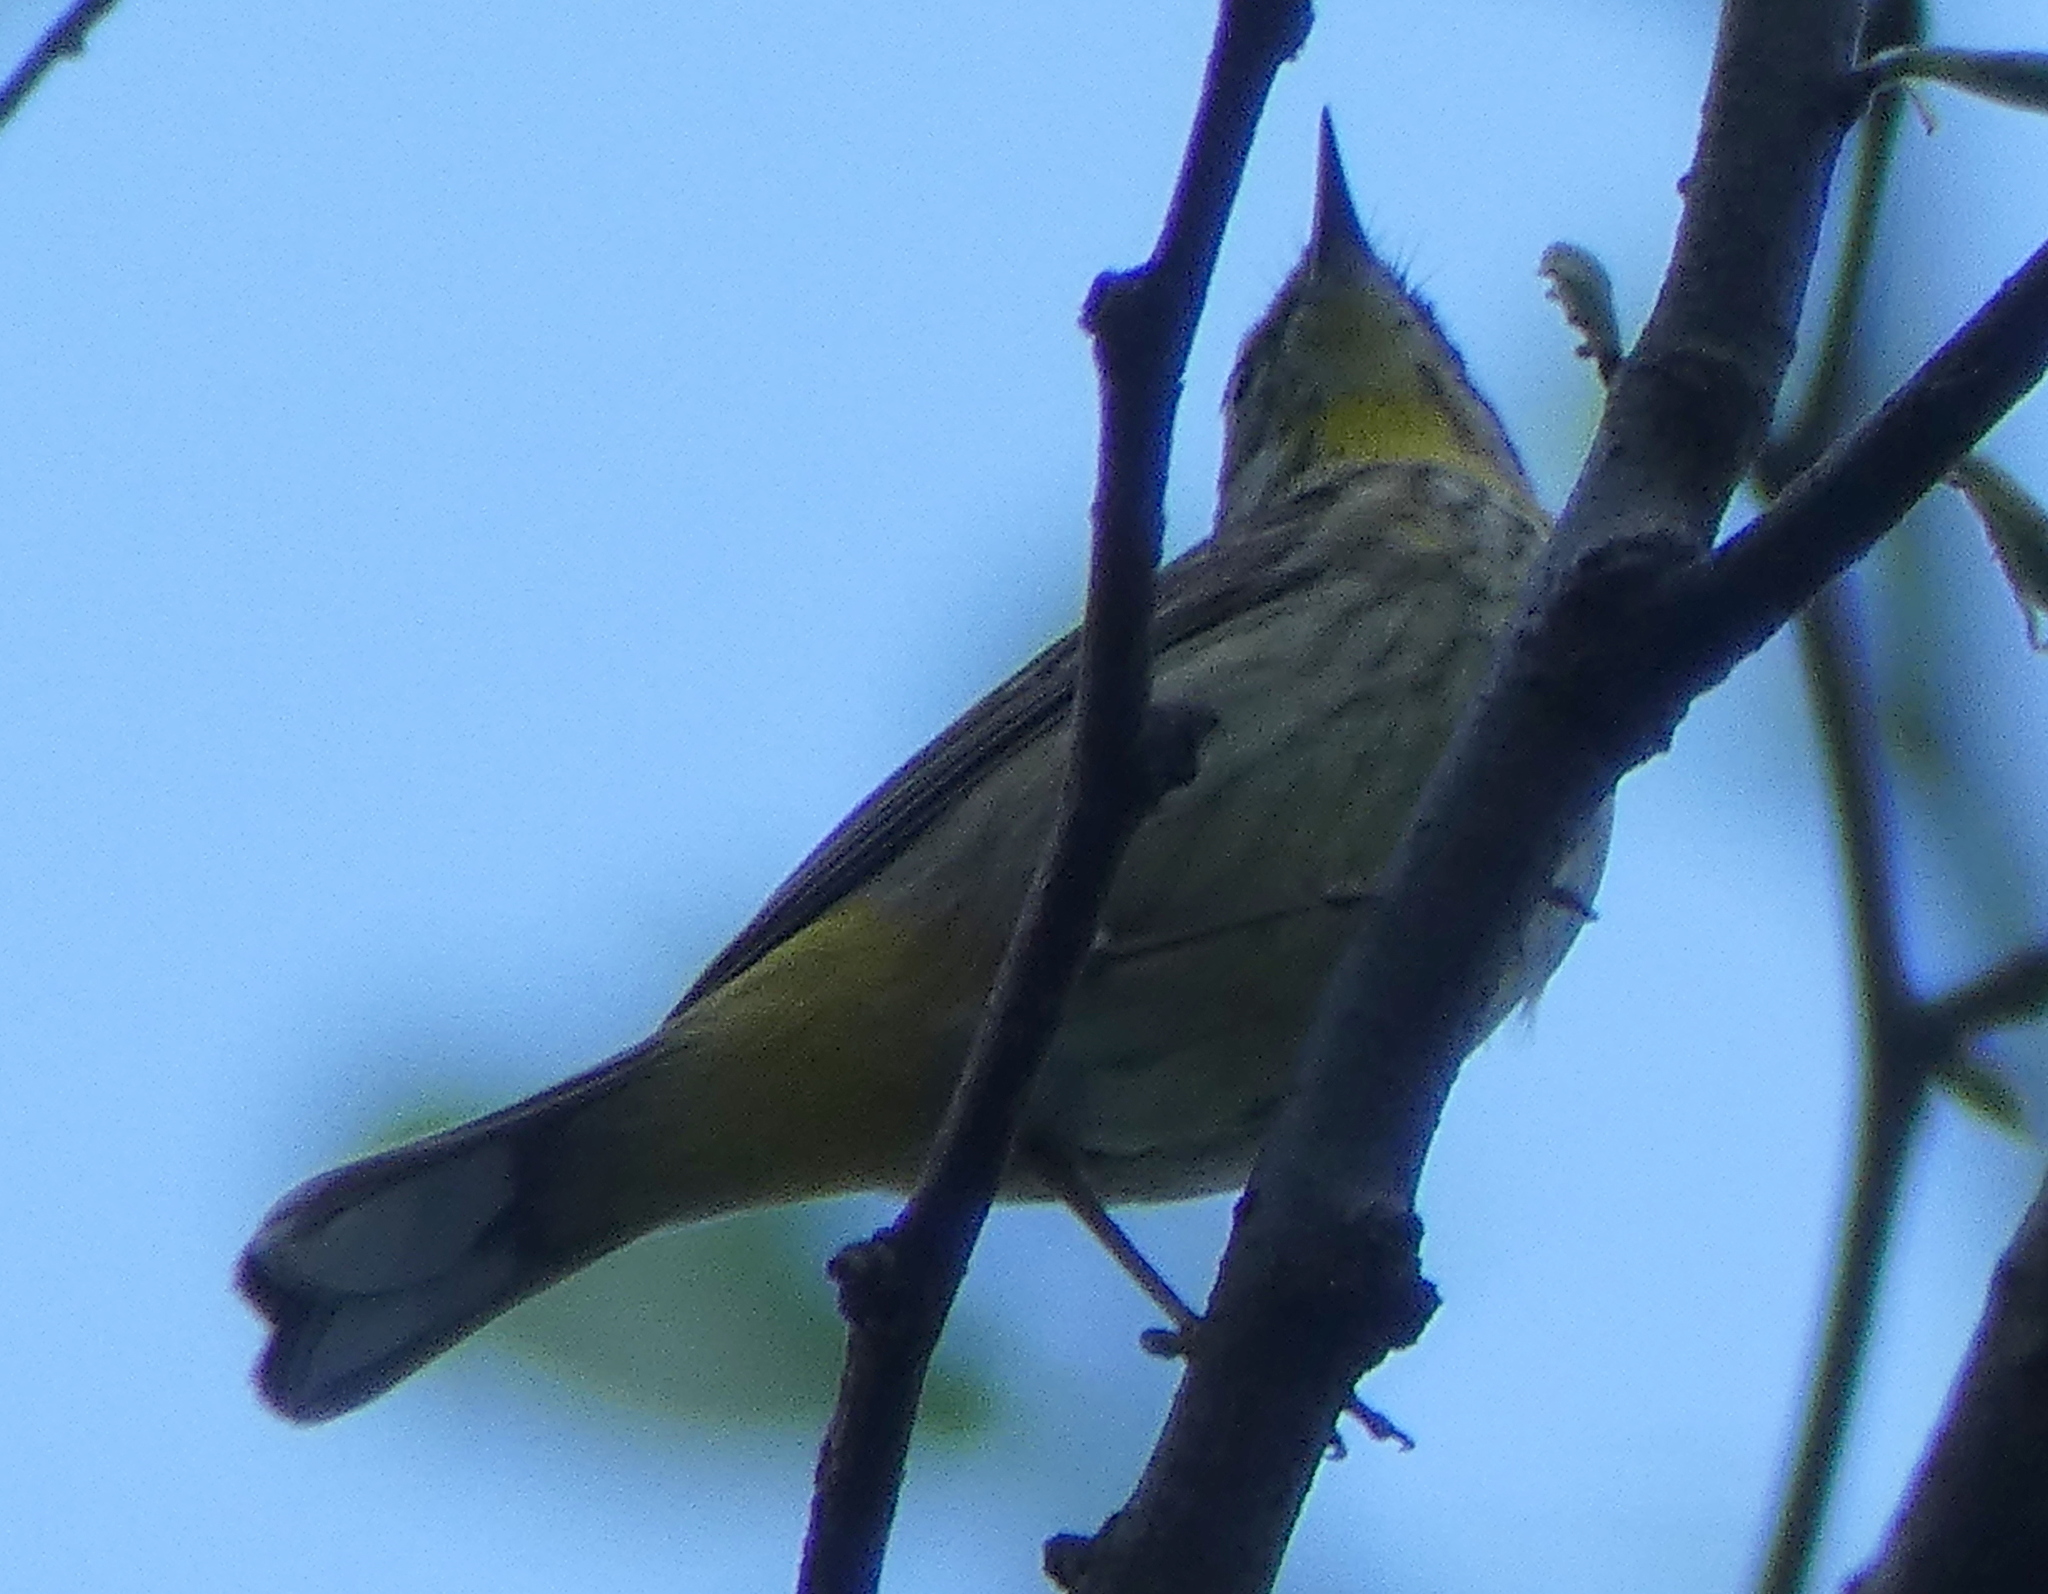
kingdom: Animalia
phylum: Chordata
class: Aves
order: Passeriformes
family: Parulidae
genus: Setophaga
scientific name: Setophaga palmarum
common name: Palm warbler
